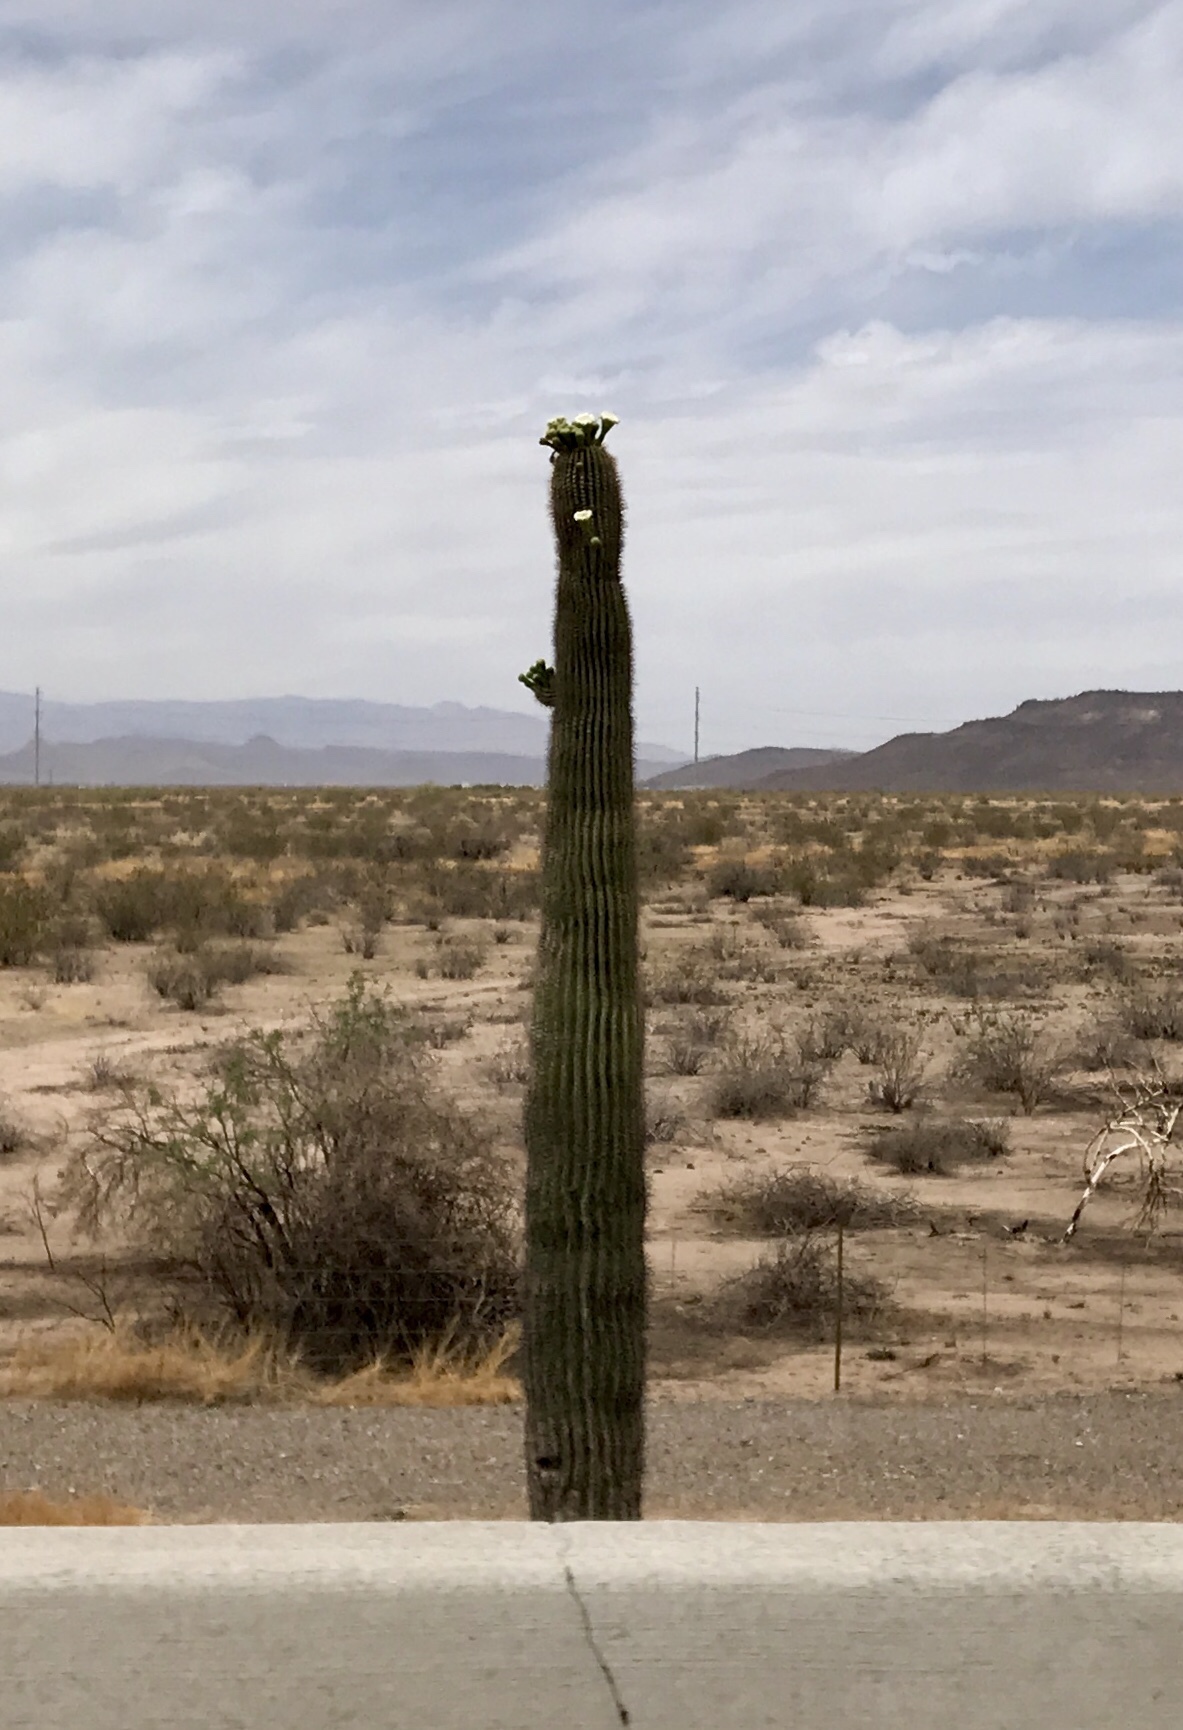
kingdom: Plantae
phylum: Tracheophyta
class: Magnoliopsida
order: Caryophyllales
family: Cactaceae
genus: Carnegiea
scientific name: Carnegiea gigantea
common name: Saguaro
